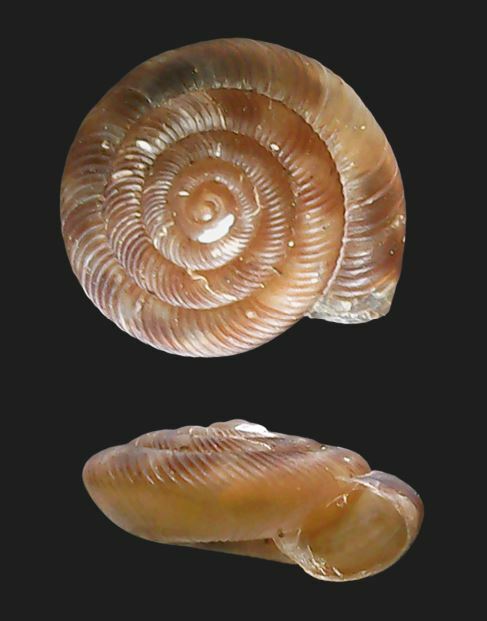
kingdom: Animalia
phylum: Mollusca
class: Gastropoda
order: Stylommatophora
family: Discidae
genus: Discus
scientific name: Discus rotundatus
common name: Rounded snail
